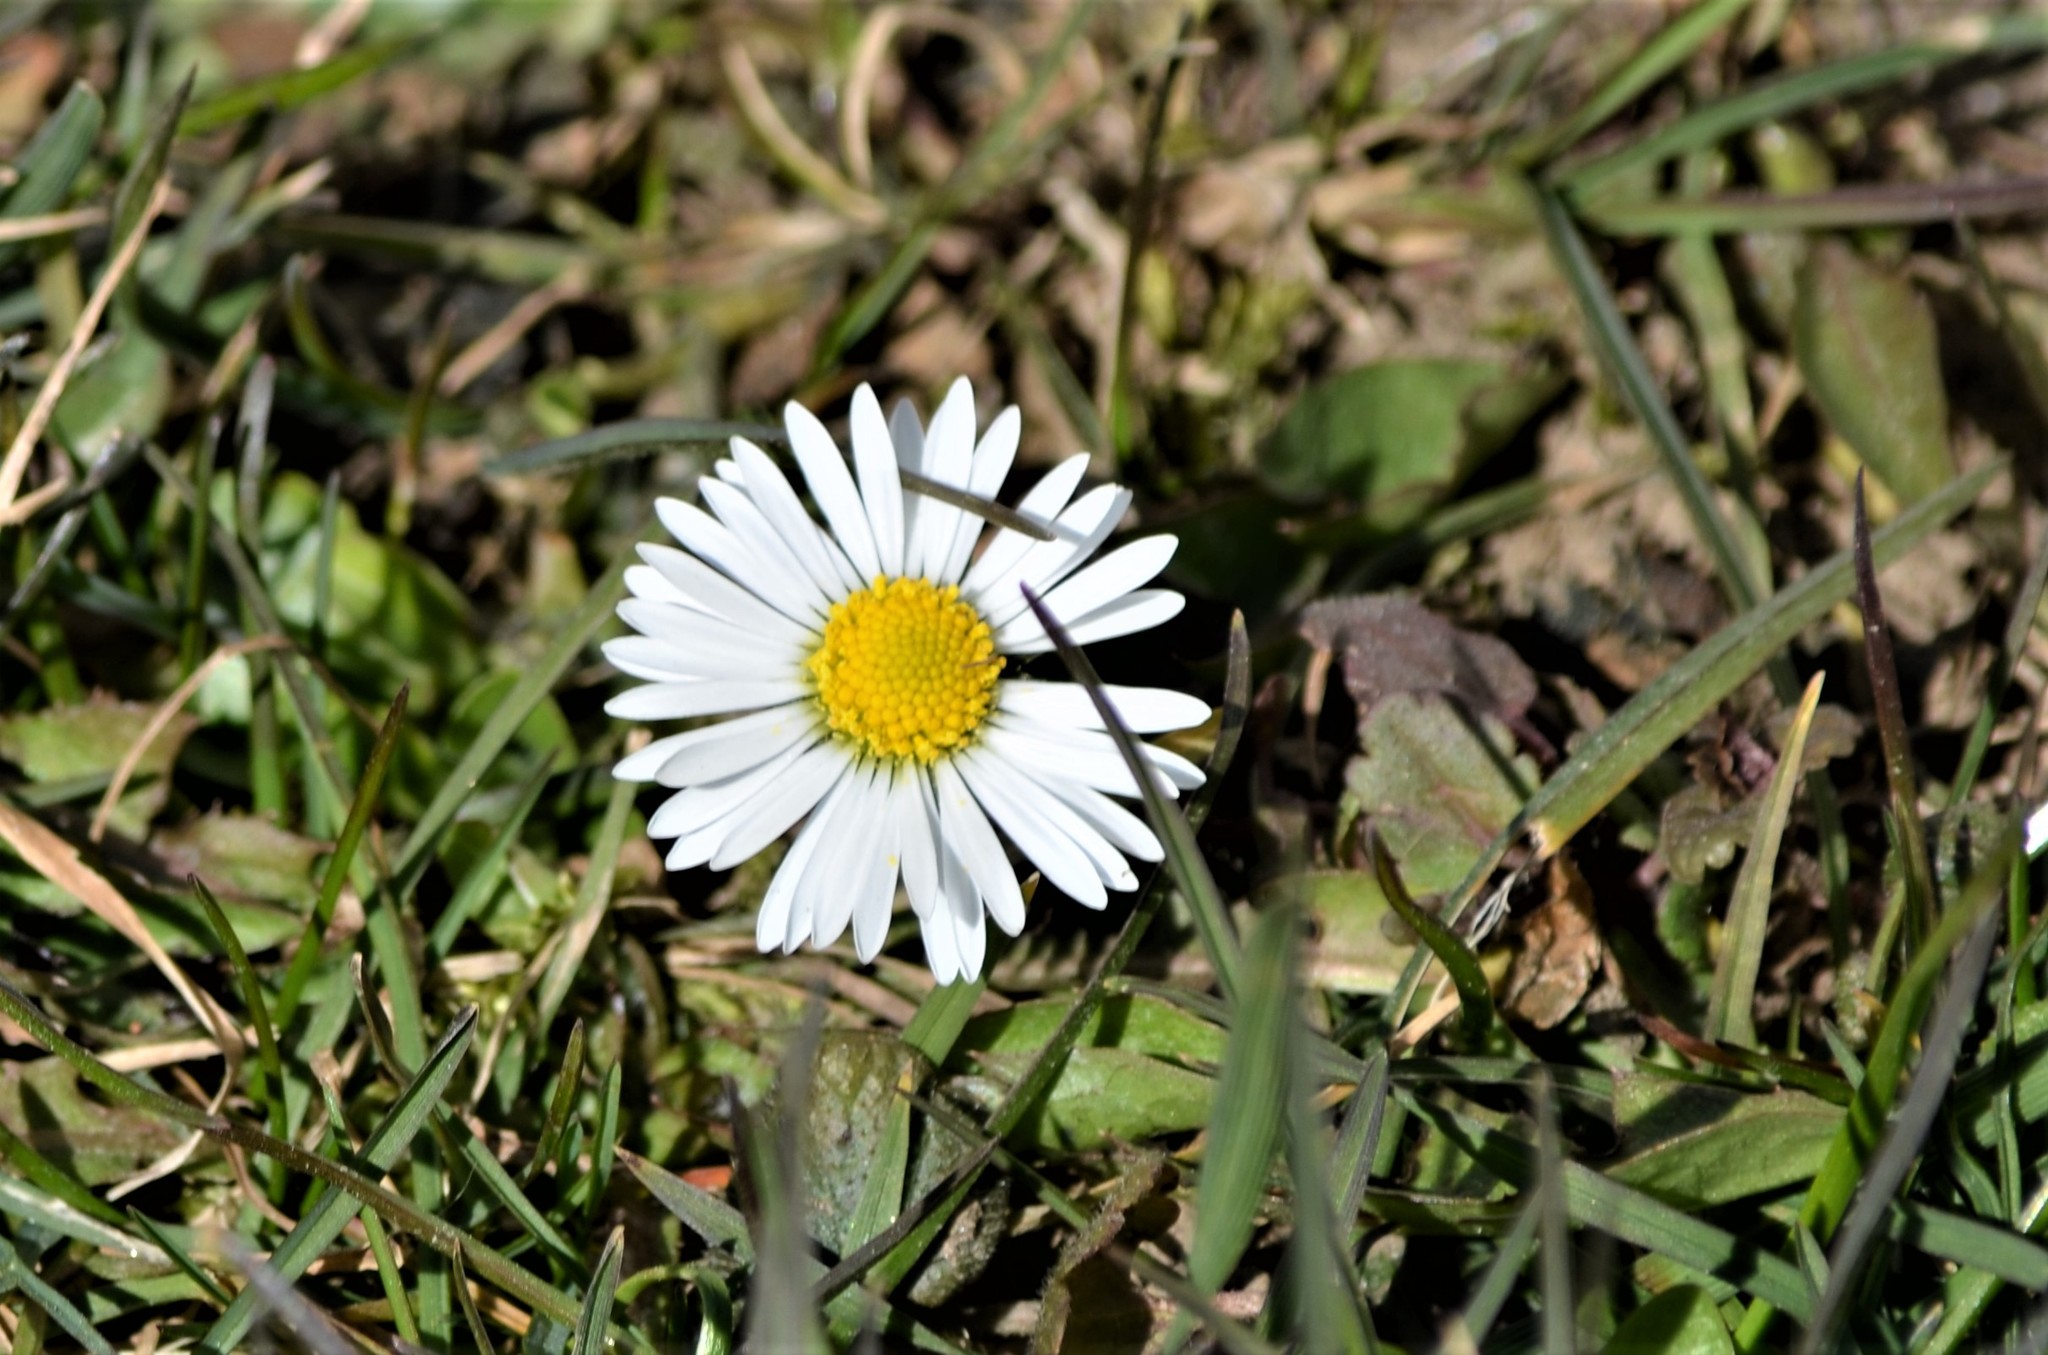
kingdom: Plantae
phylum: Tracheophyta
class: Magnoliopsida
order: Asterales
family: Asteraceae
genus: Bellis
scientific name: Bellis perennis
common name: Lawndaisy
